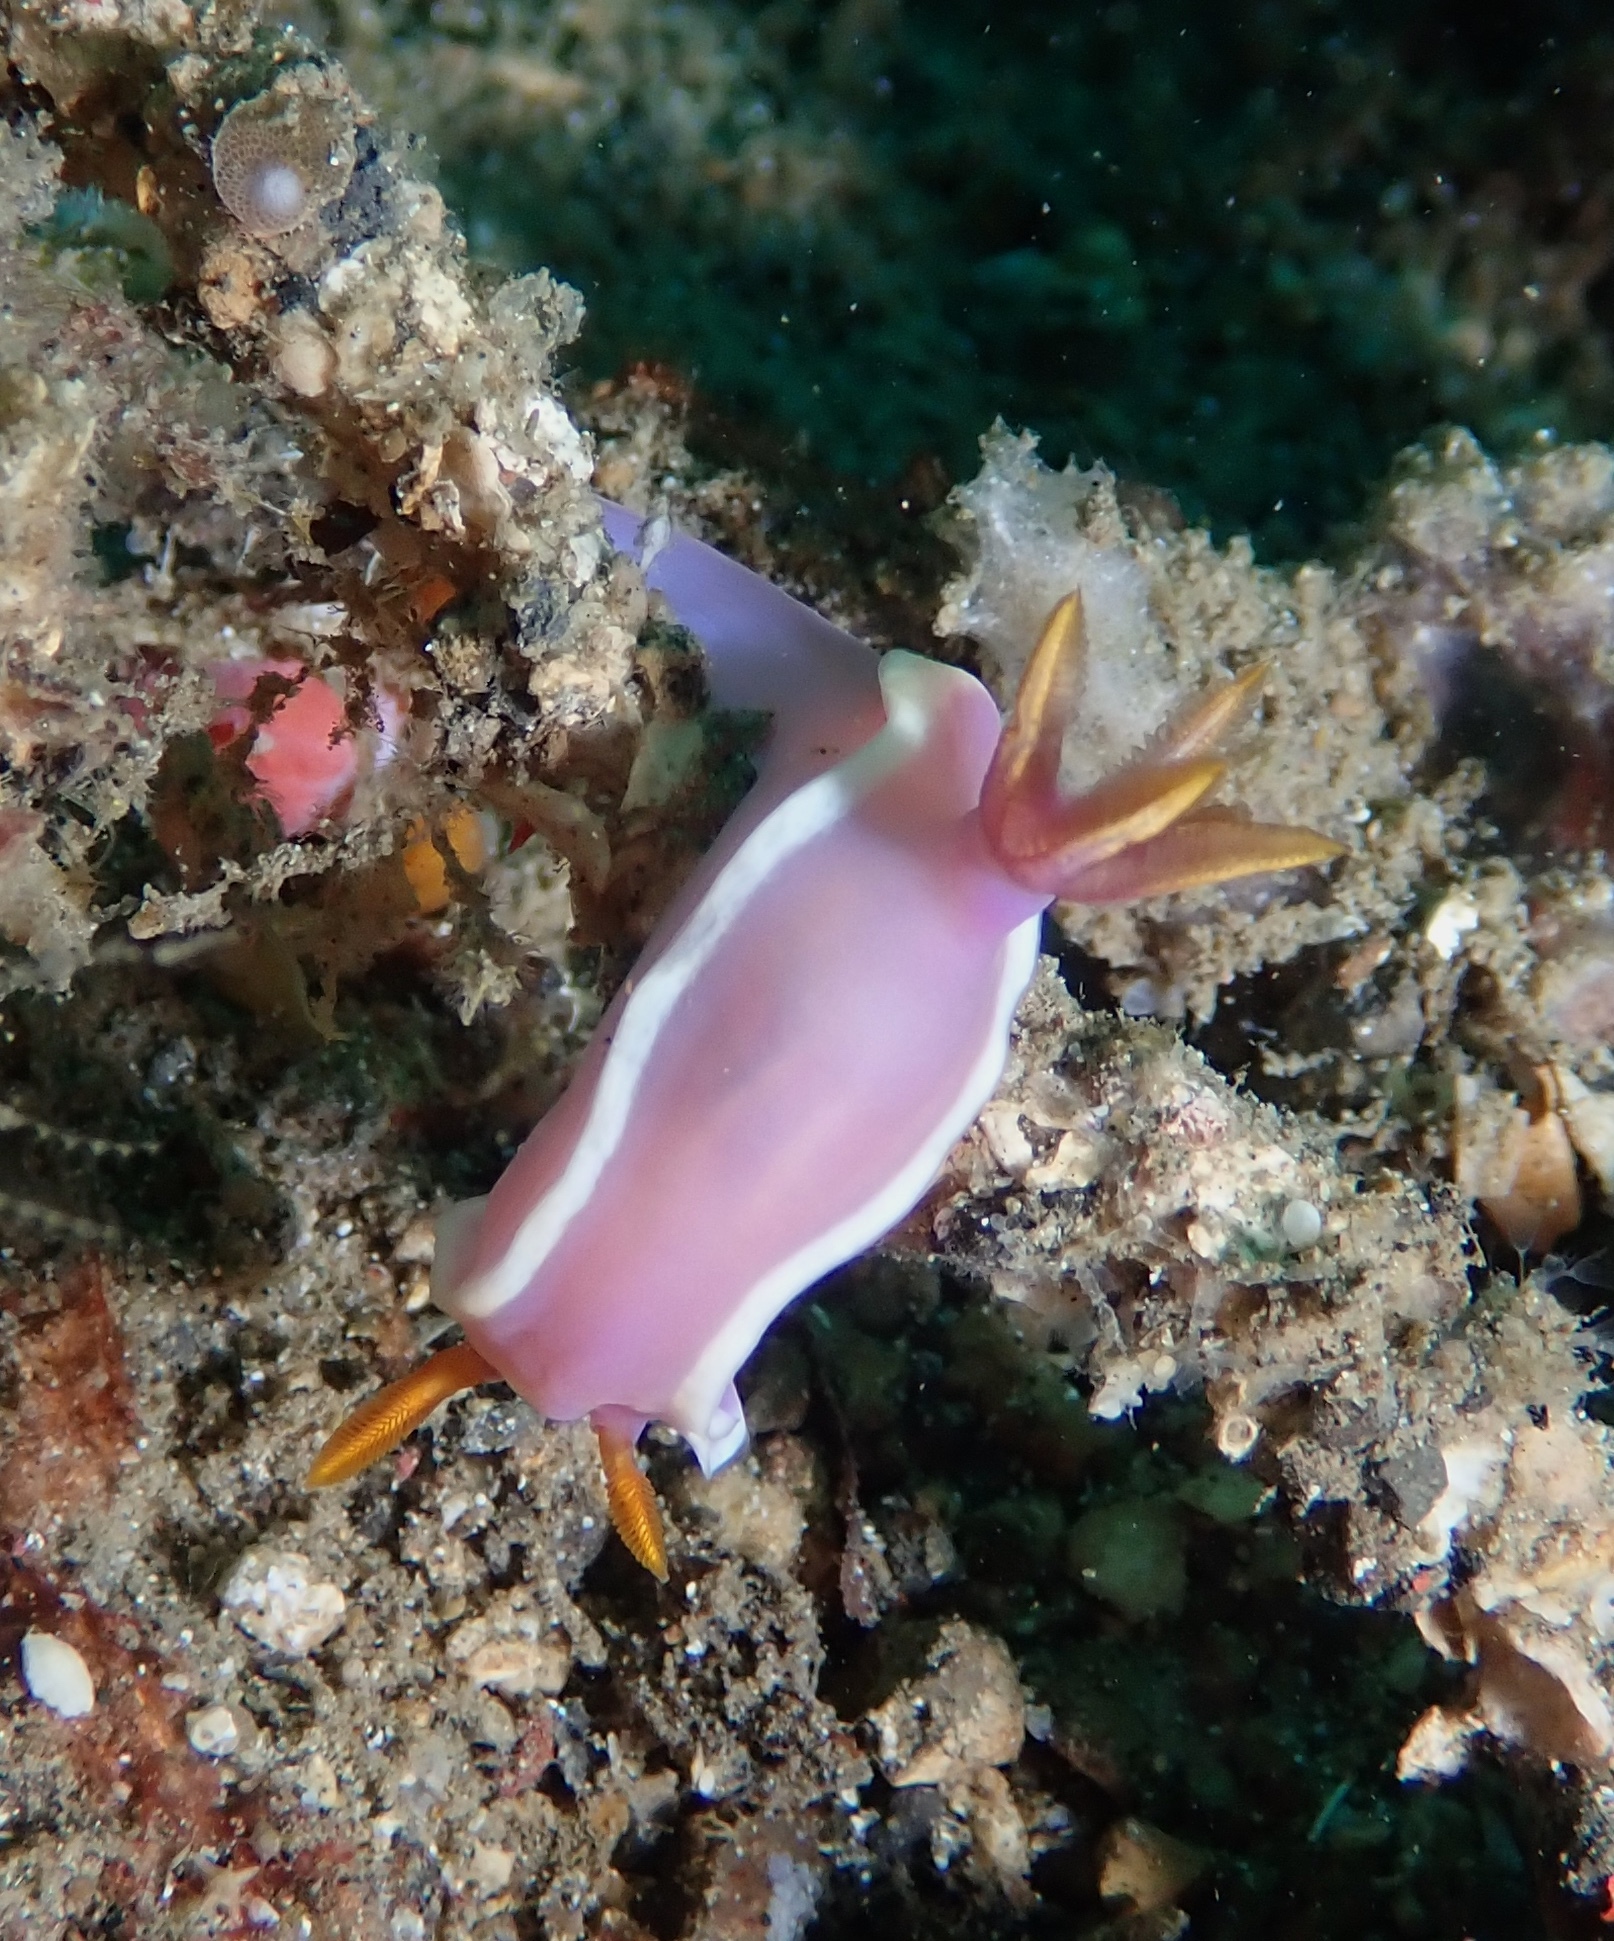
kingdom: Animalia
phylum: Mollusca
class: Gastropoda
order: Nudibranchia
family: Chromodorididae
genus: Hypselodoris
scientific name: Hypselodoris variobranchia
